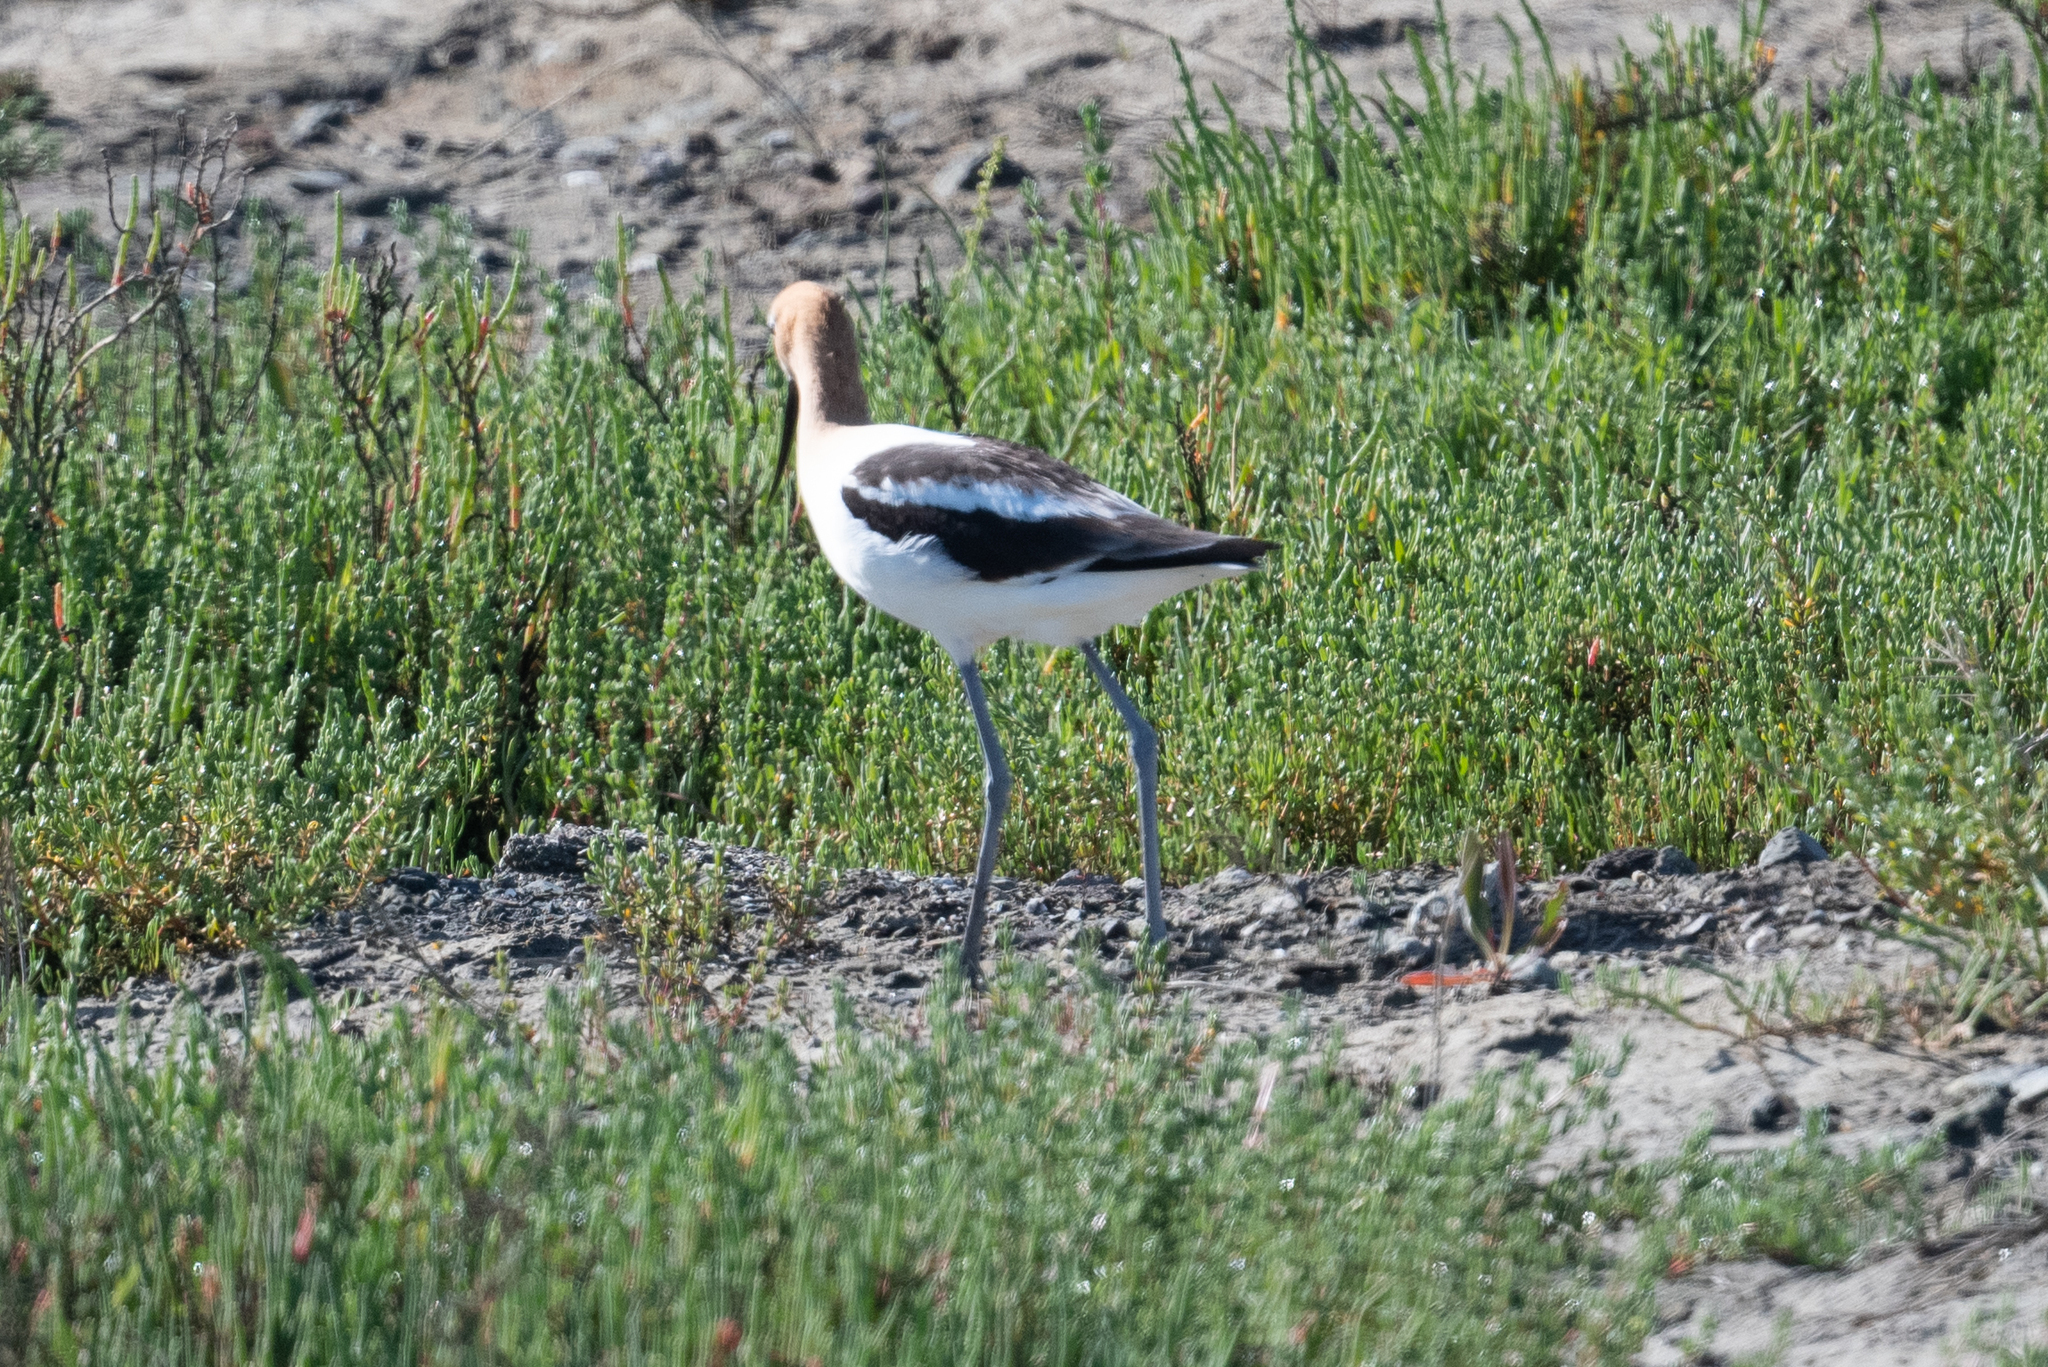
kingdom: Animalia
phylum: Chordata
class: Aves
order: Charadriiformes
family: Recurvirostridae
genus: Recurvirostra
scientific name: Recurvirostra americana
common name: American avocet
